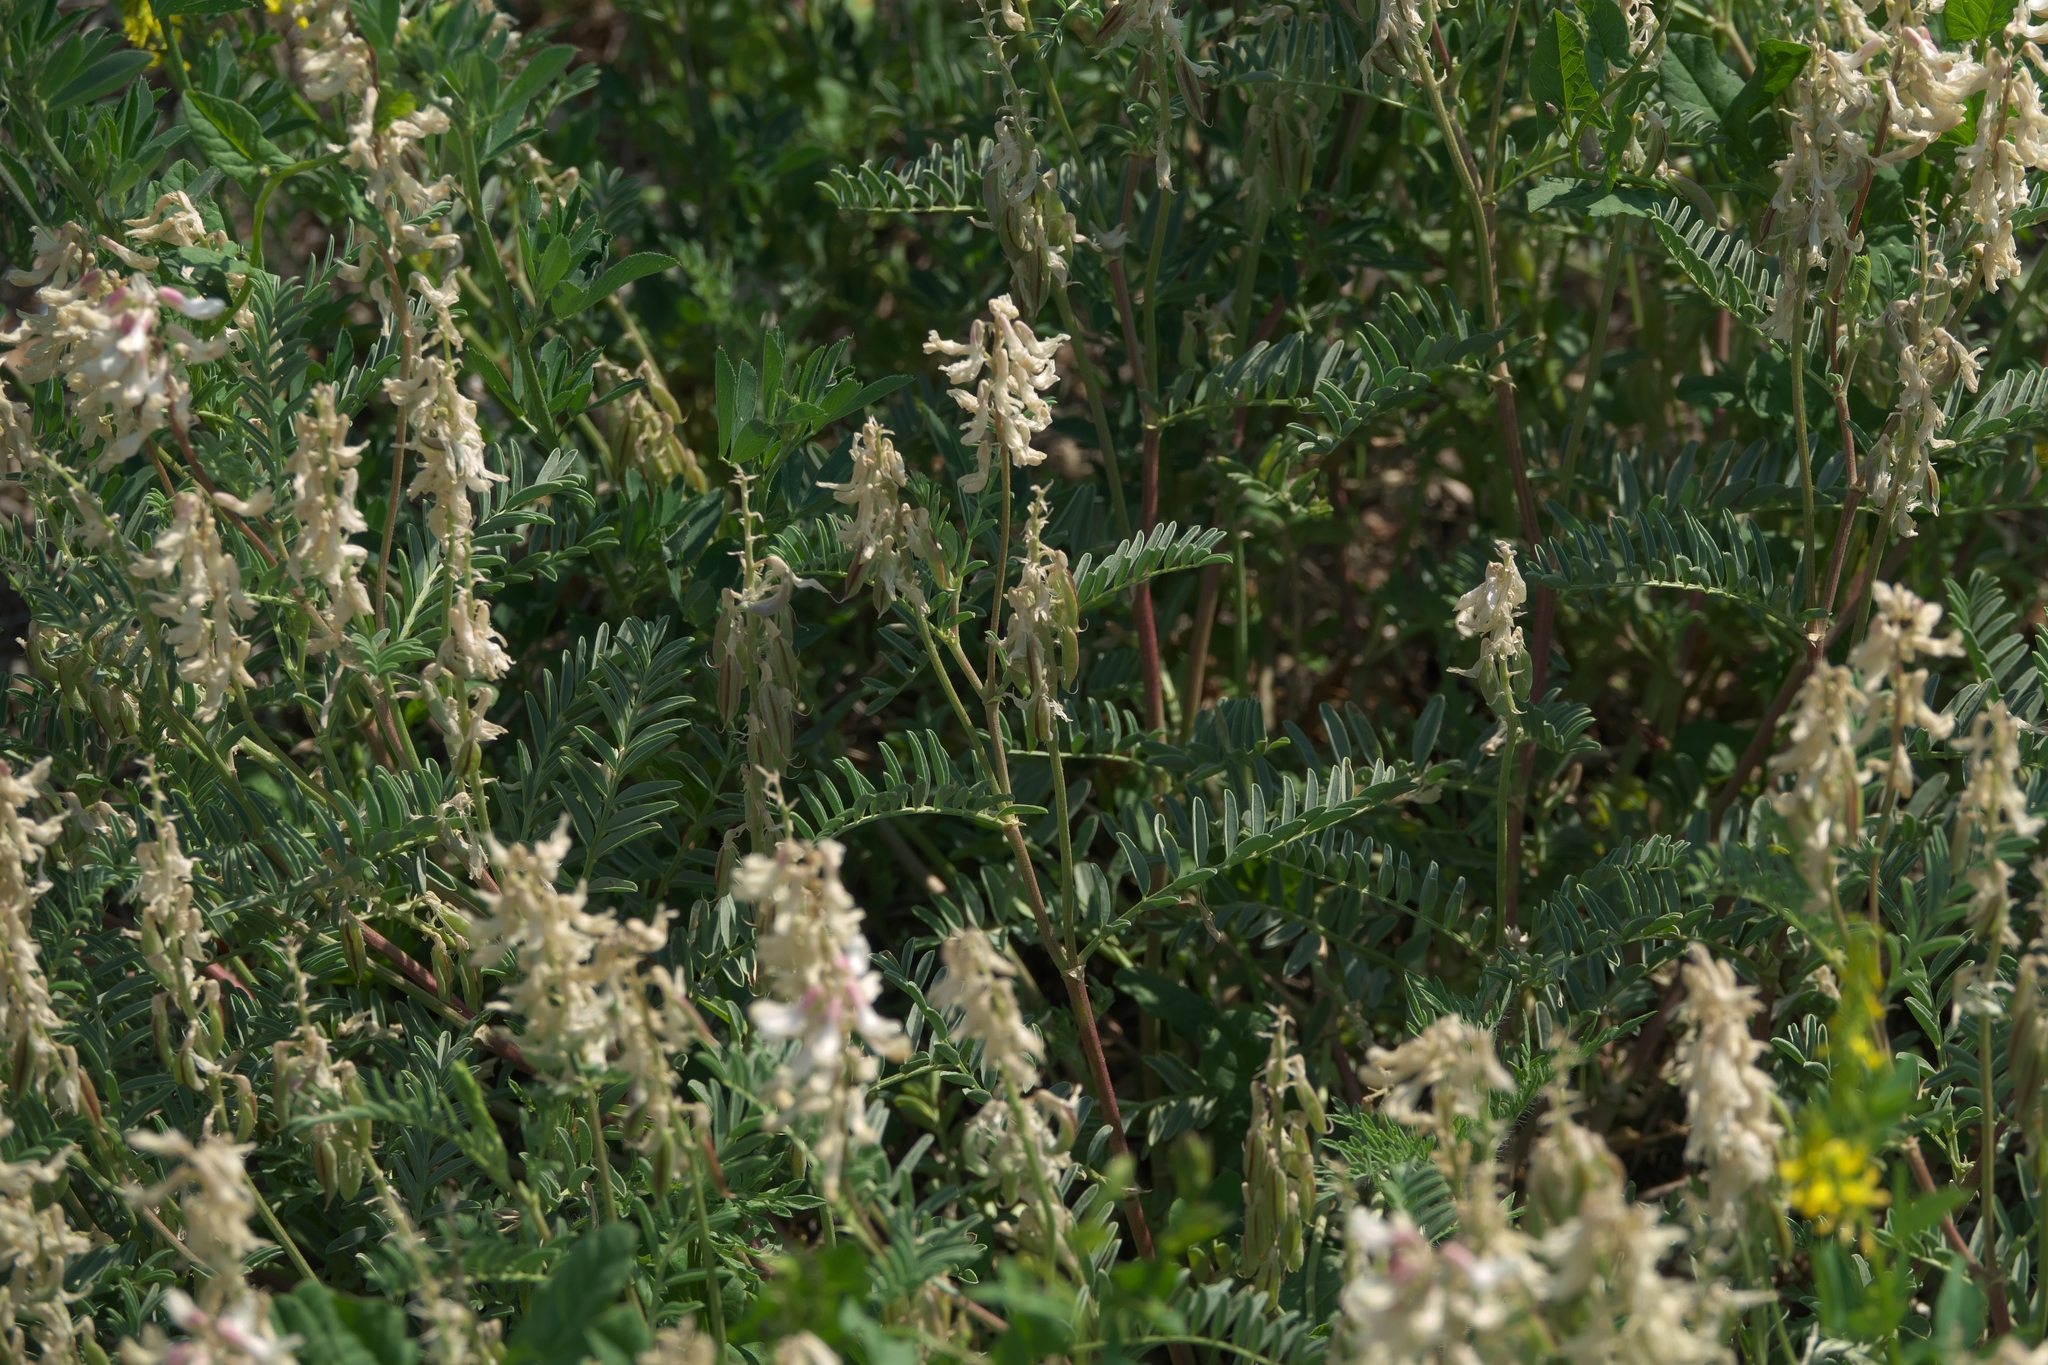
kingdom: Plantae
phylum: Tracheophyta
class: Magnoliopsida
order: Fabales
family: Fabaceae
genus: Astragalus
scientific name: Astragalus bisulcatus
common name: Two-groove milk-vetch
